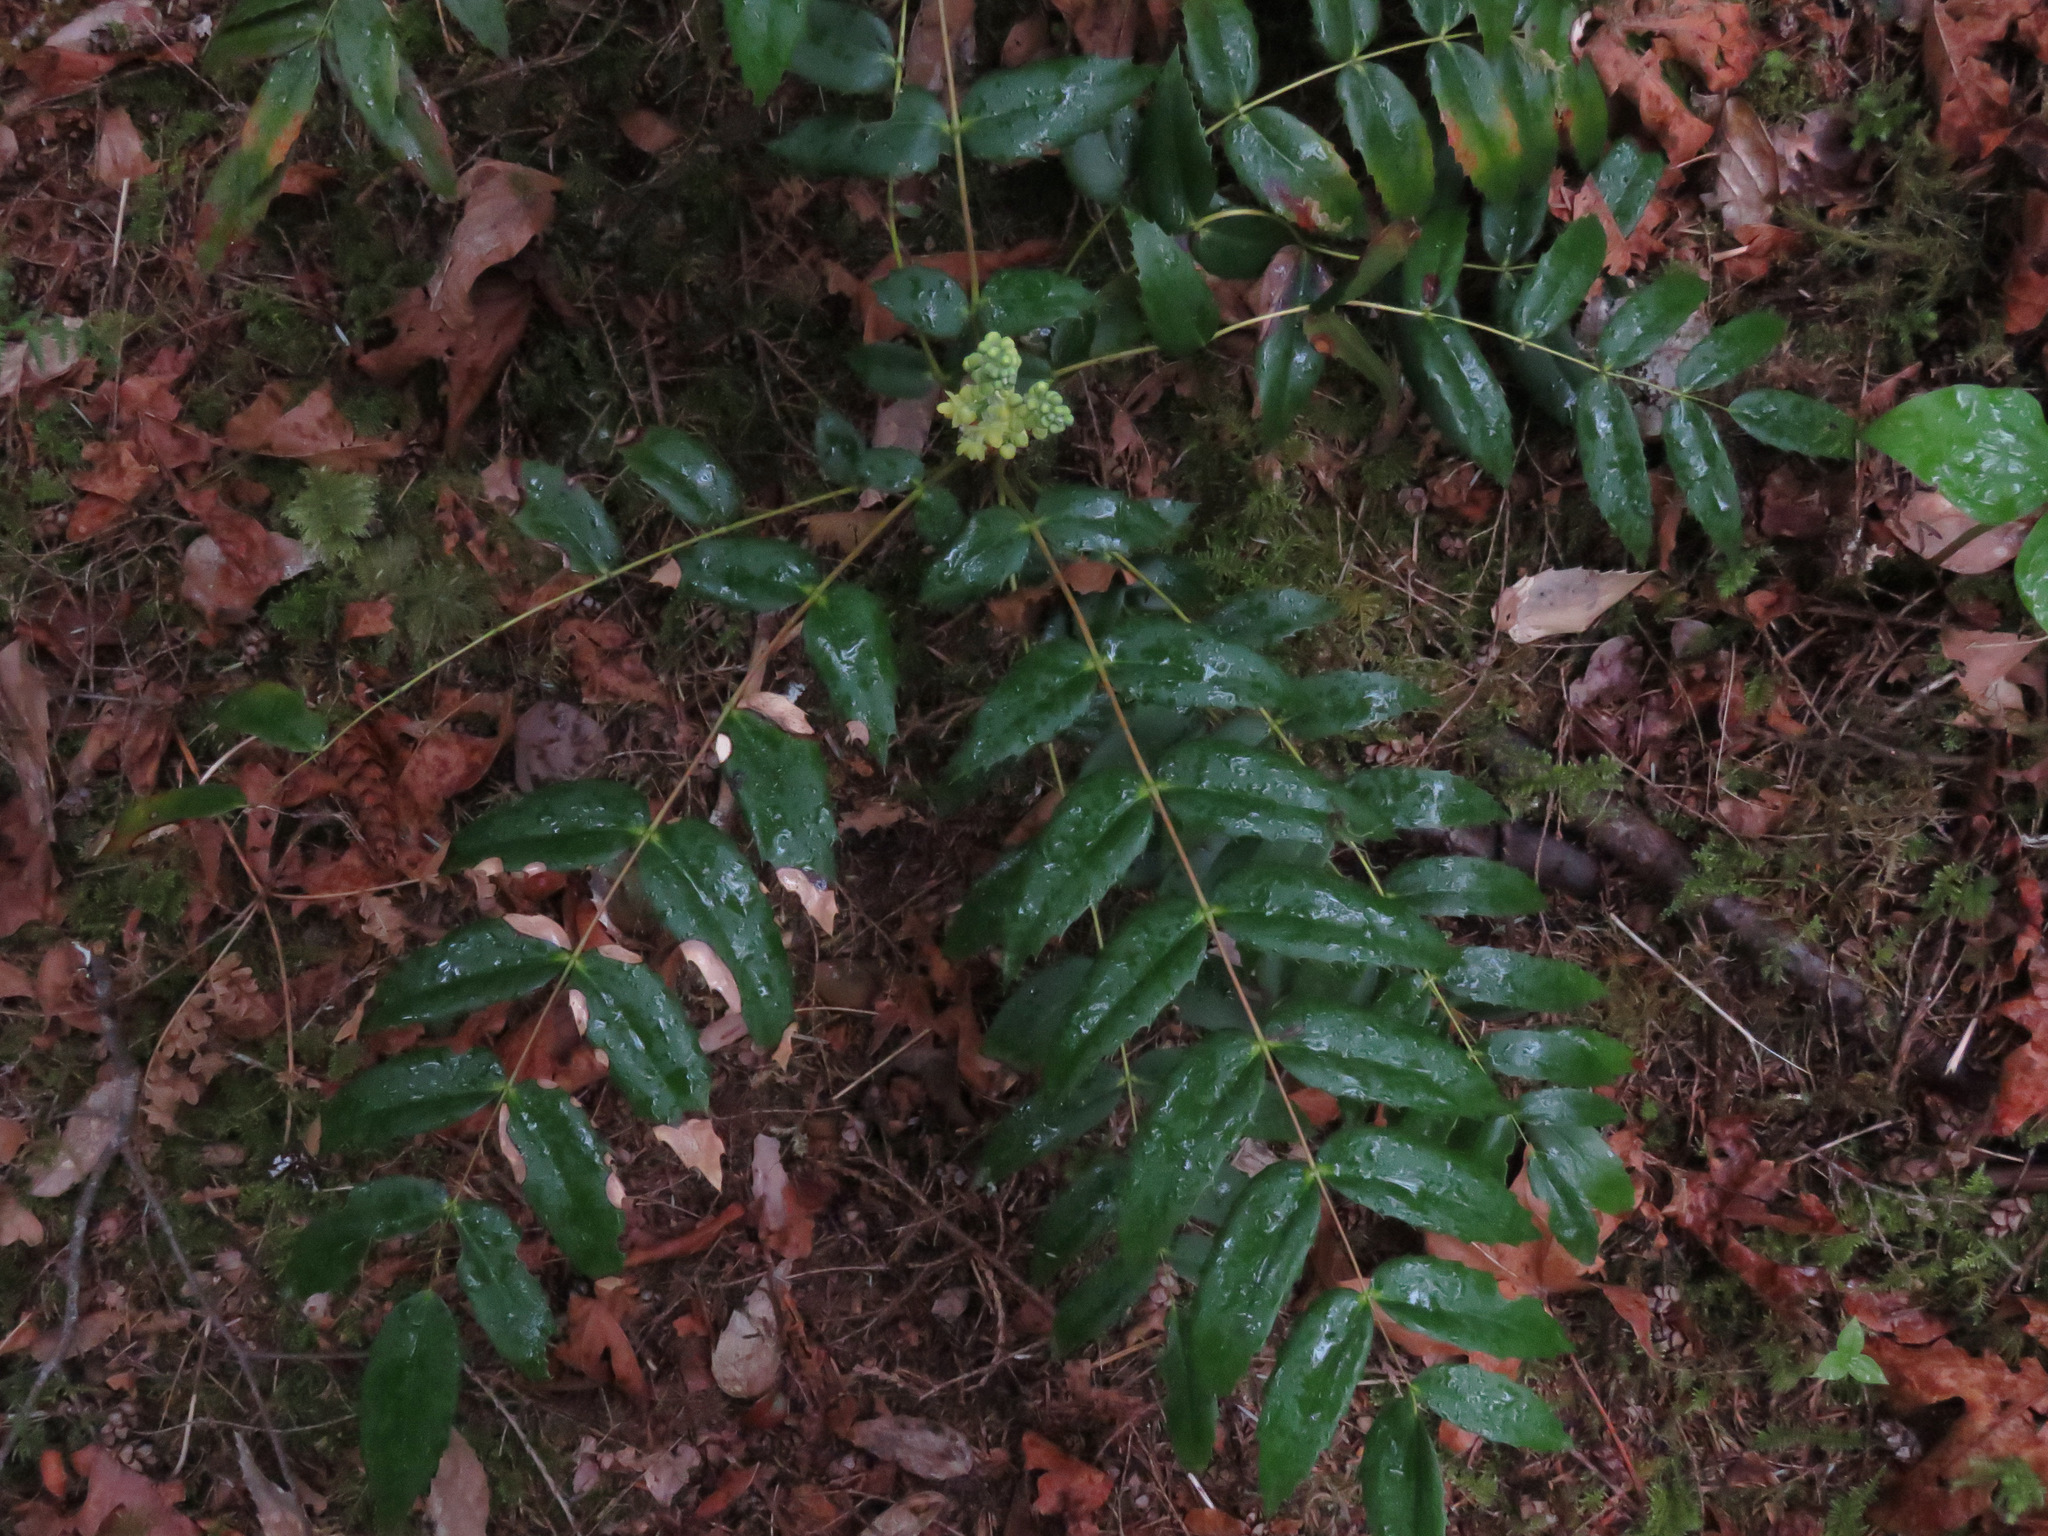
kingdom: Plantae
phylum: Tracheophyta
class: Magnoliopsida
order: Ranunculales
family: Berberidaceae
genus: Mahonia
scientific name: Mahonia nervosa
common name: Cascade oregon-grape
